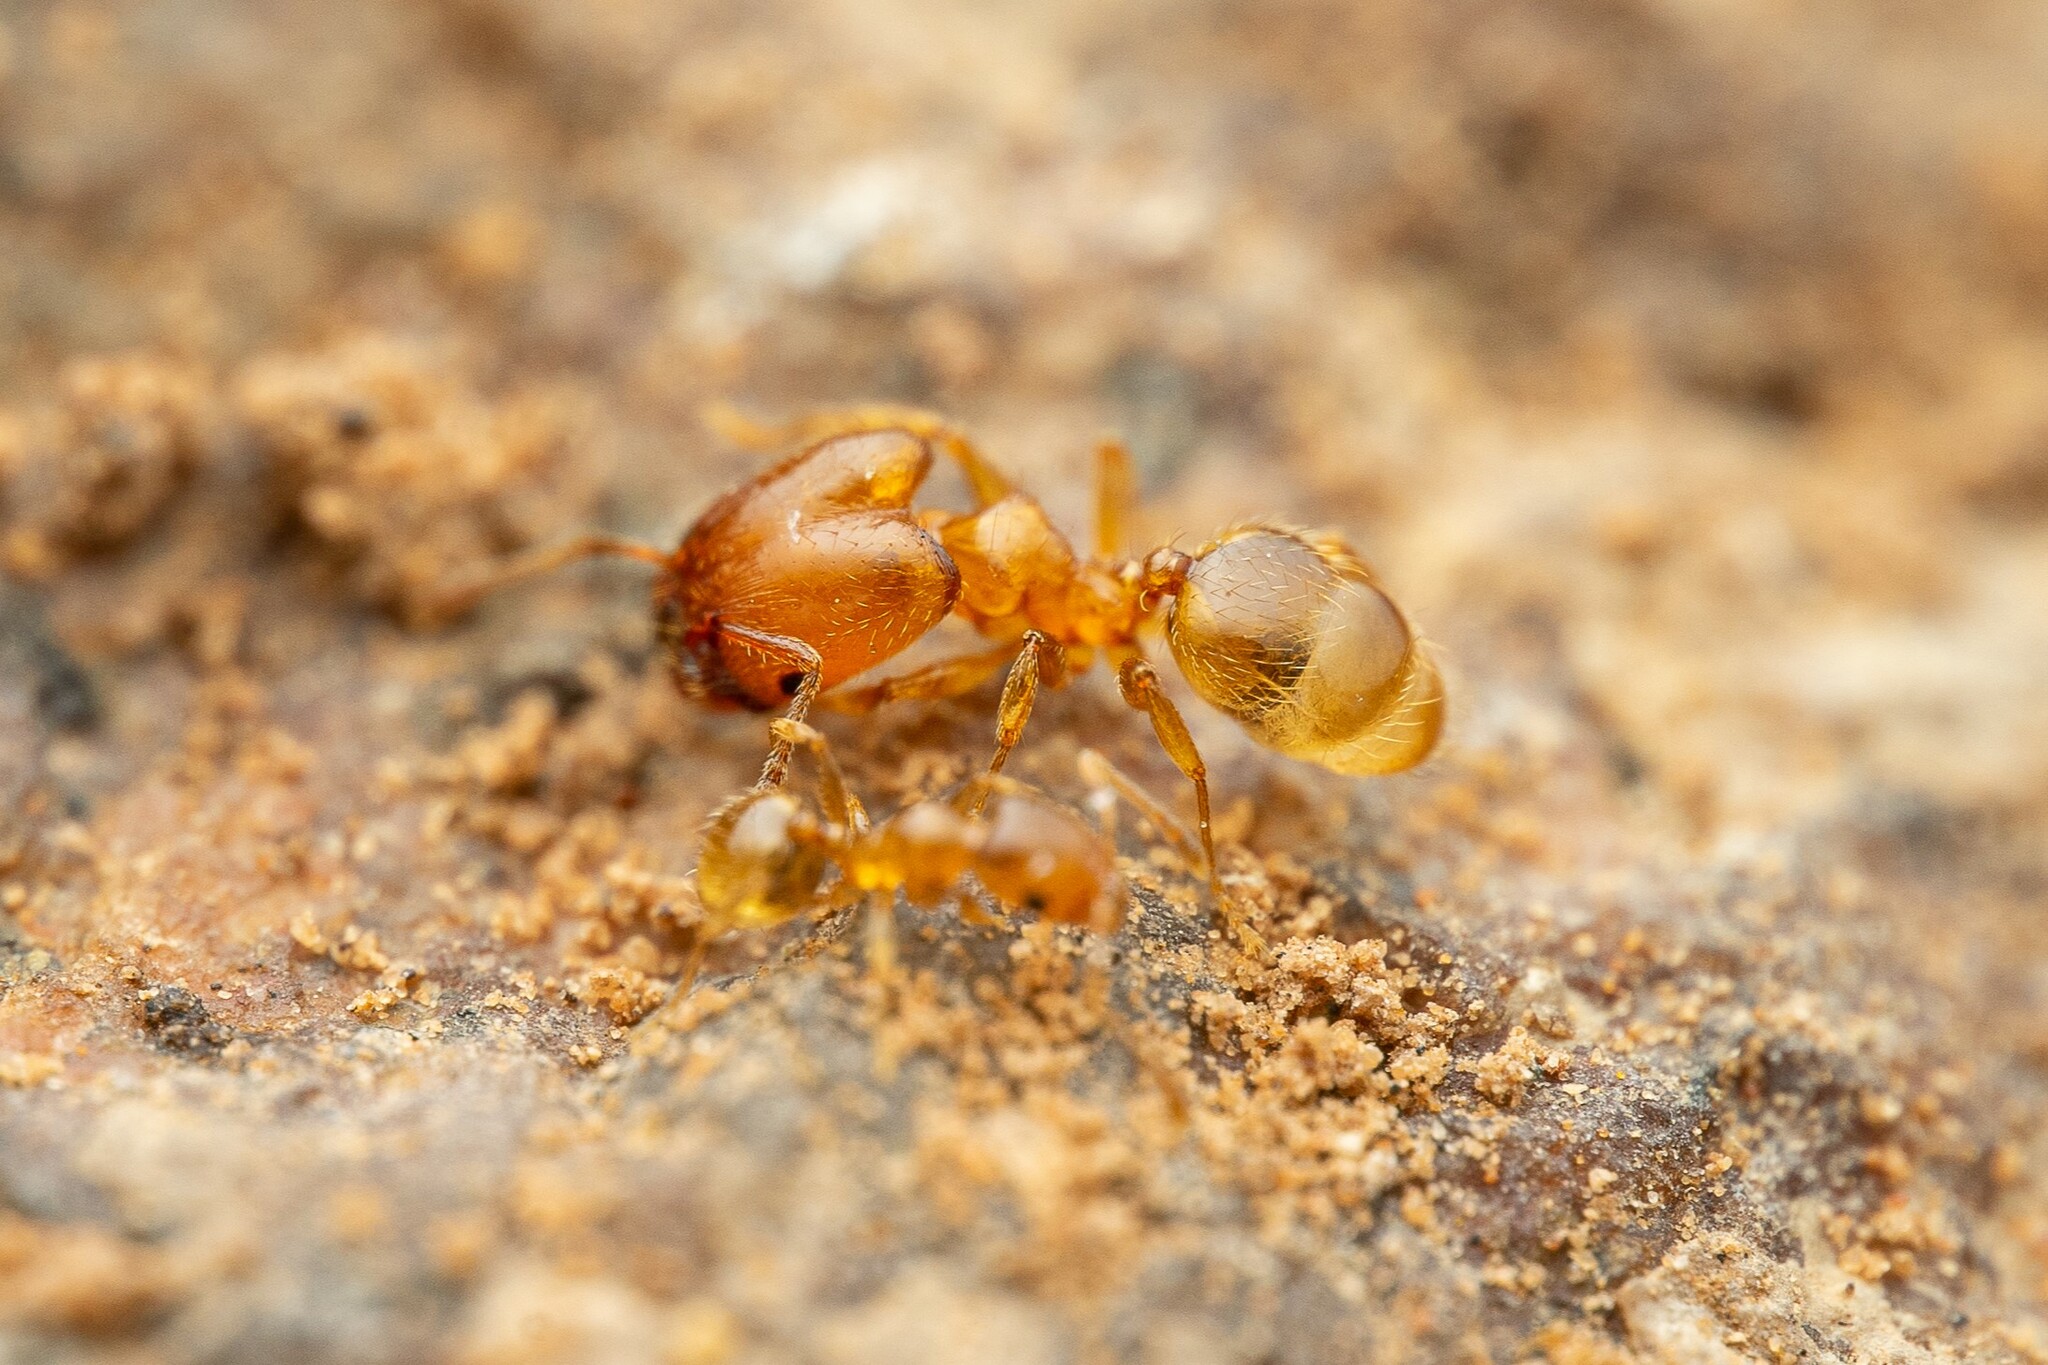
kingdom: Animalia
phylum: Arthropoda
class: Insecta
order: Hymenoptera
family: Formicidae
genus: Pheidole
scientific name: Pheidole
